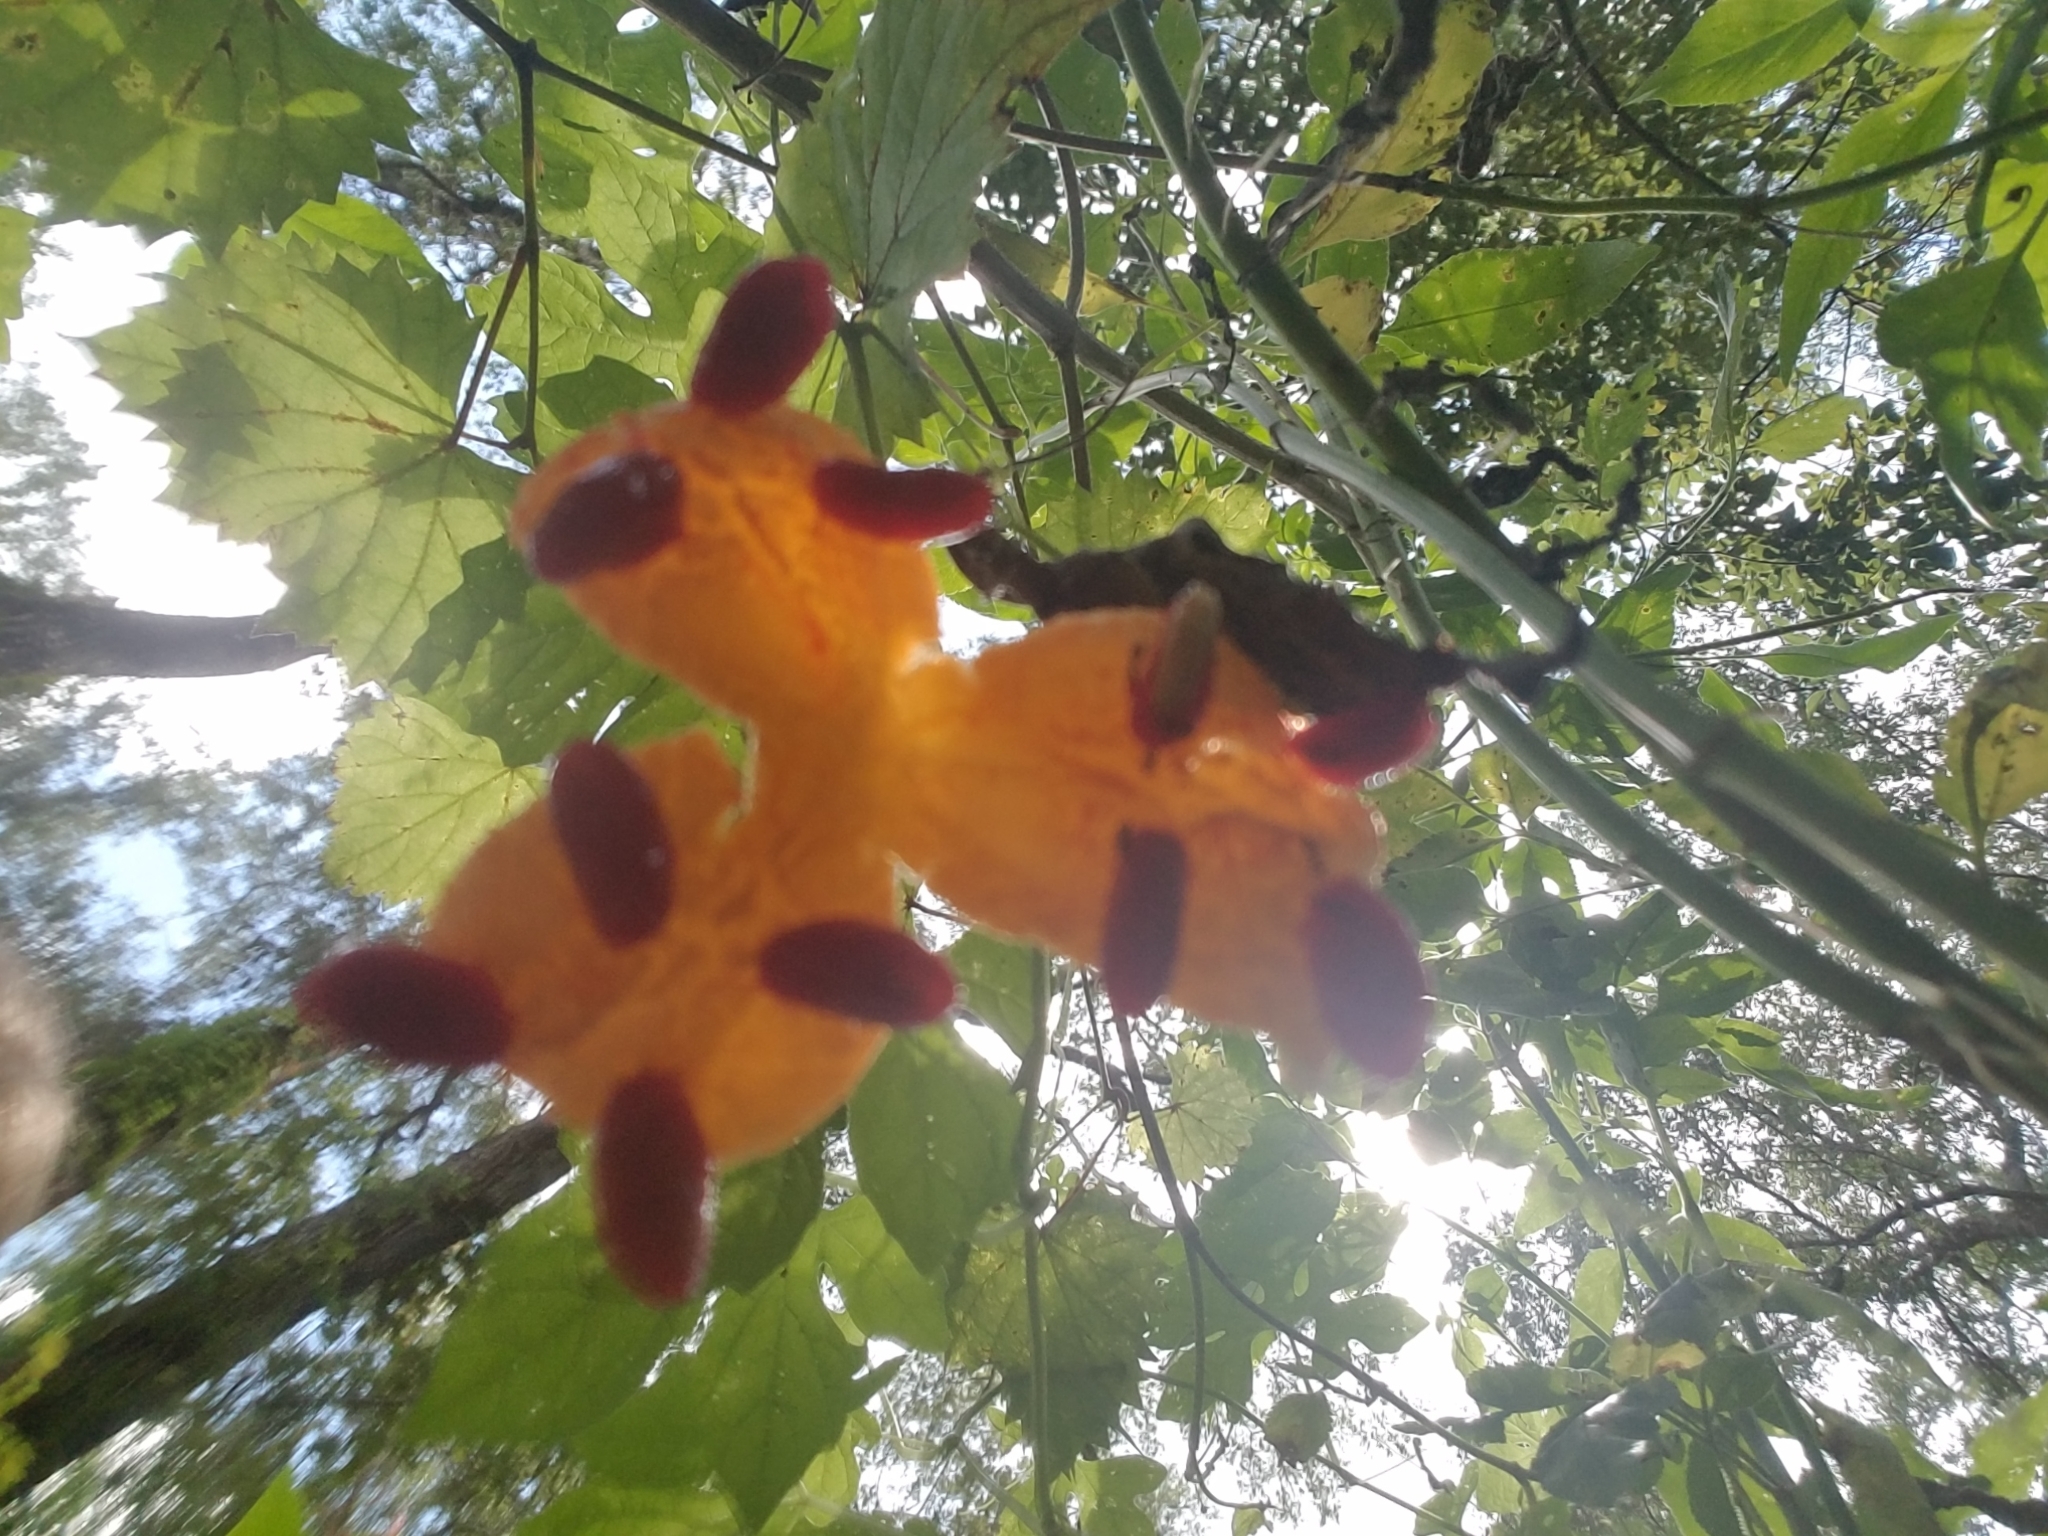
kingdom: Plantae
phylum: Tracheophyta
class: Magnoliopsida
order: Cucurbitales
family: Cucurbitaceae
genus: Momordica
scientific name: Momordica charantia
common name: Balsampear
